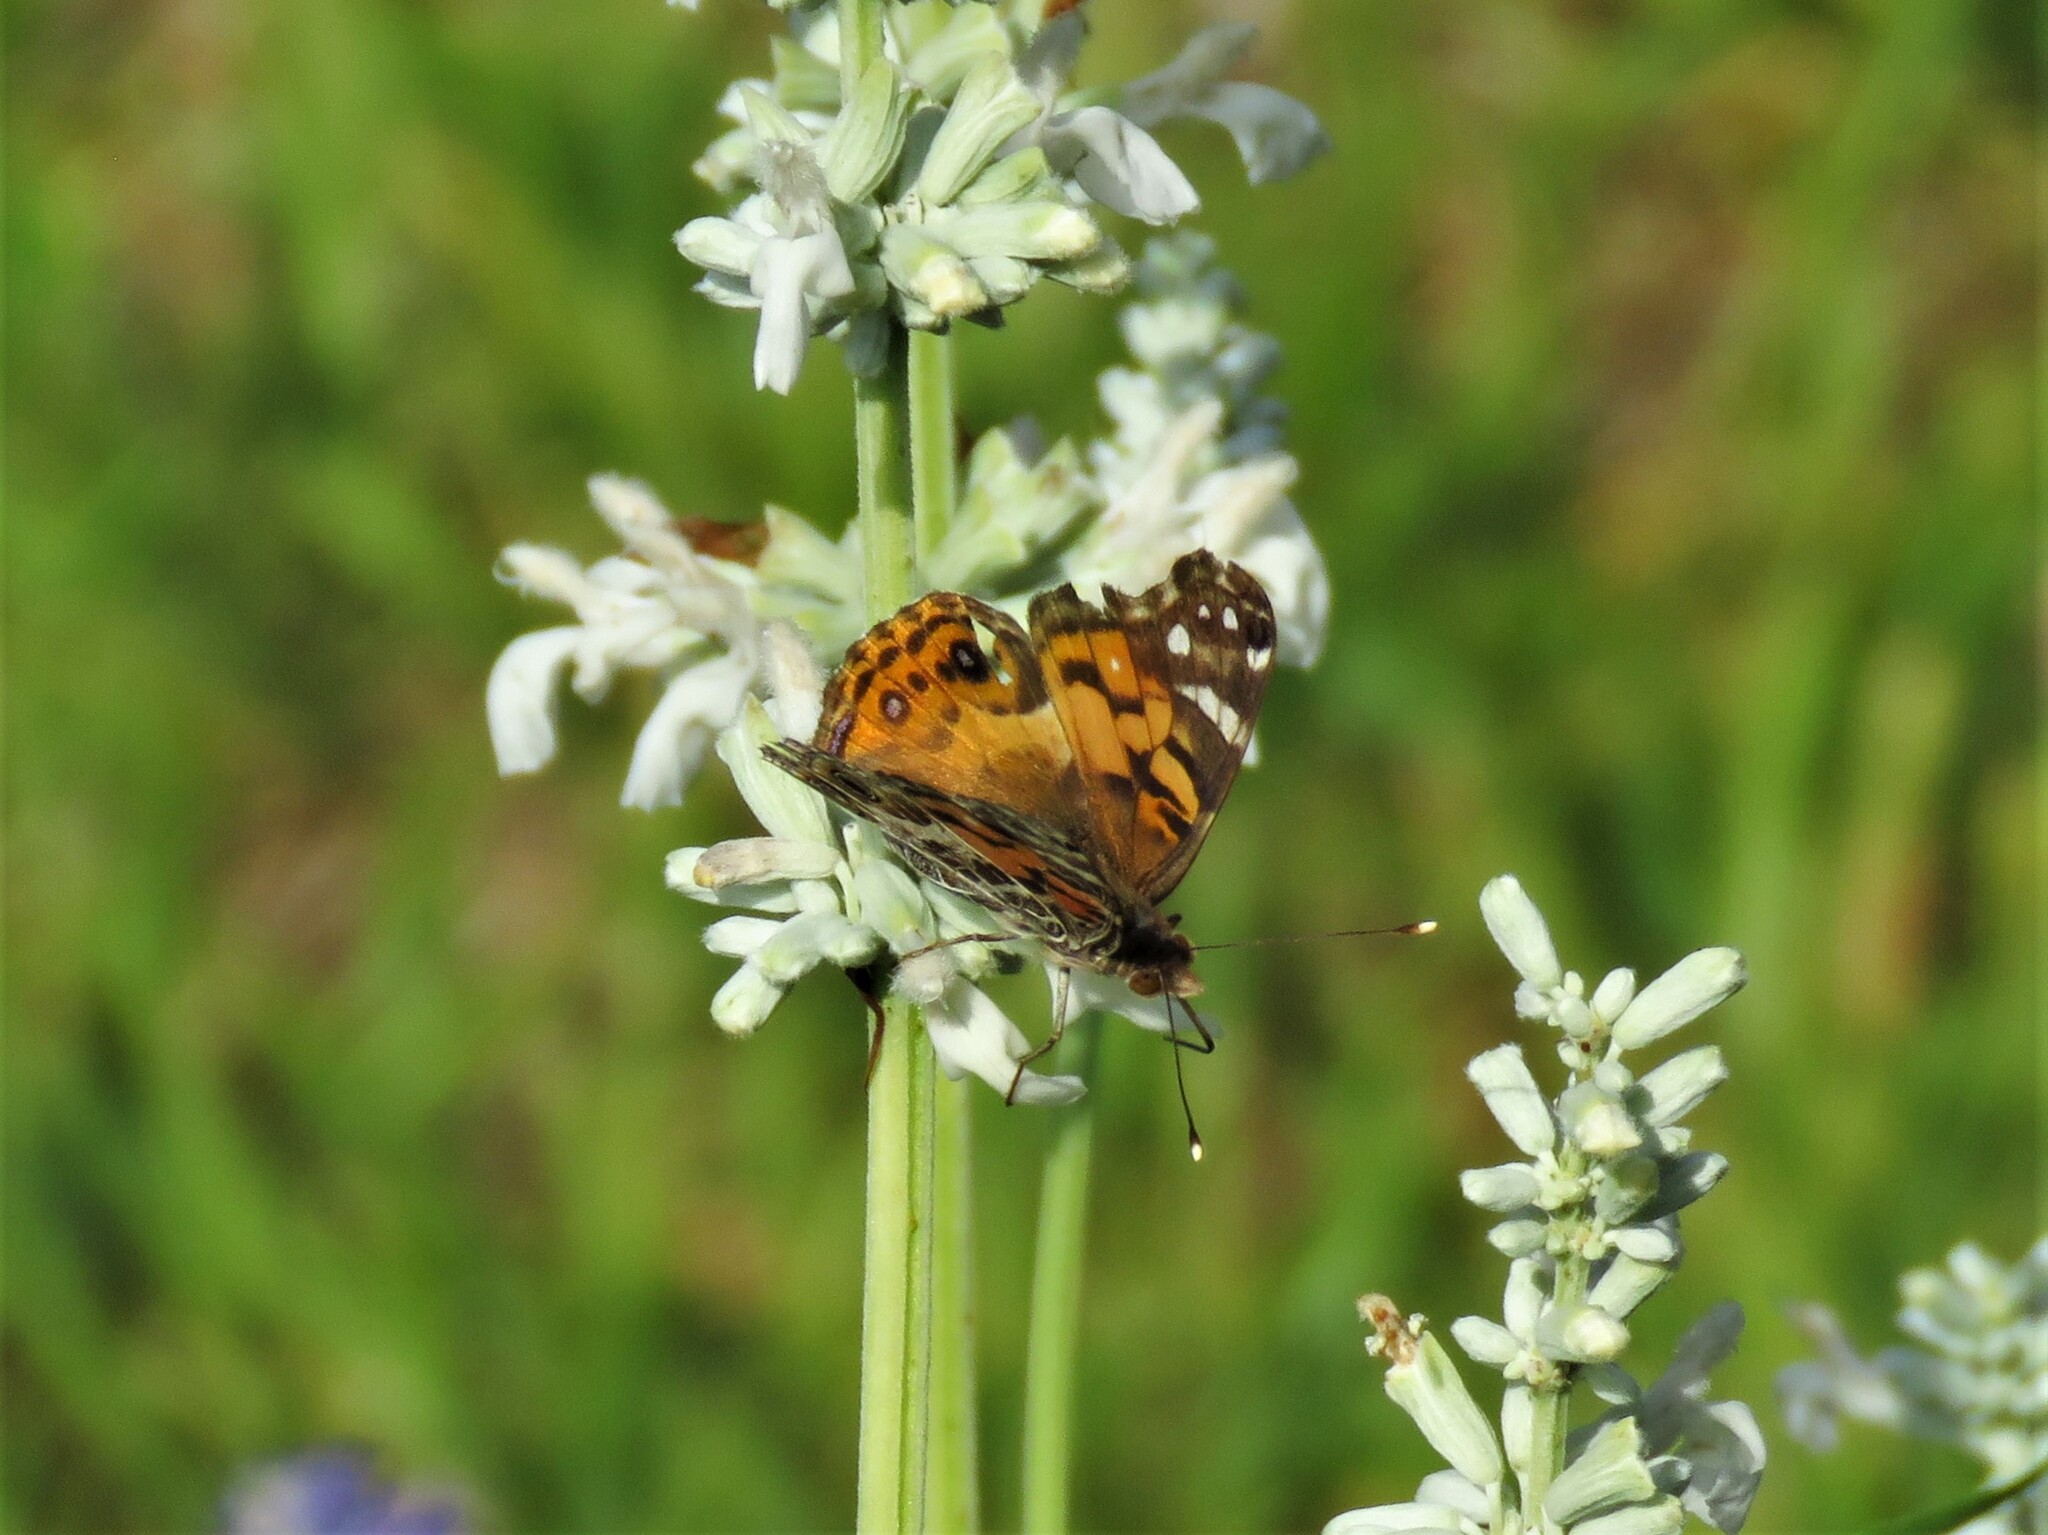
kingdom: Animalia
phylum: Arthropoda
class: Insecta
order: Lepidoptera
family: Nymphalidae
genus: Vanessa
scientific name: Vanessa virginiensis
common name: American lady
